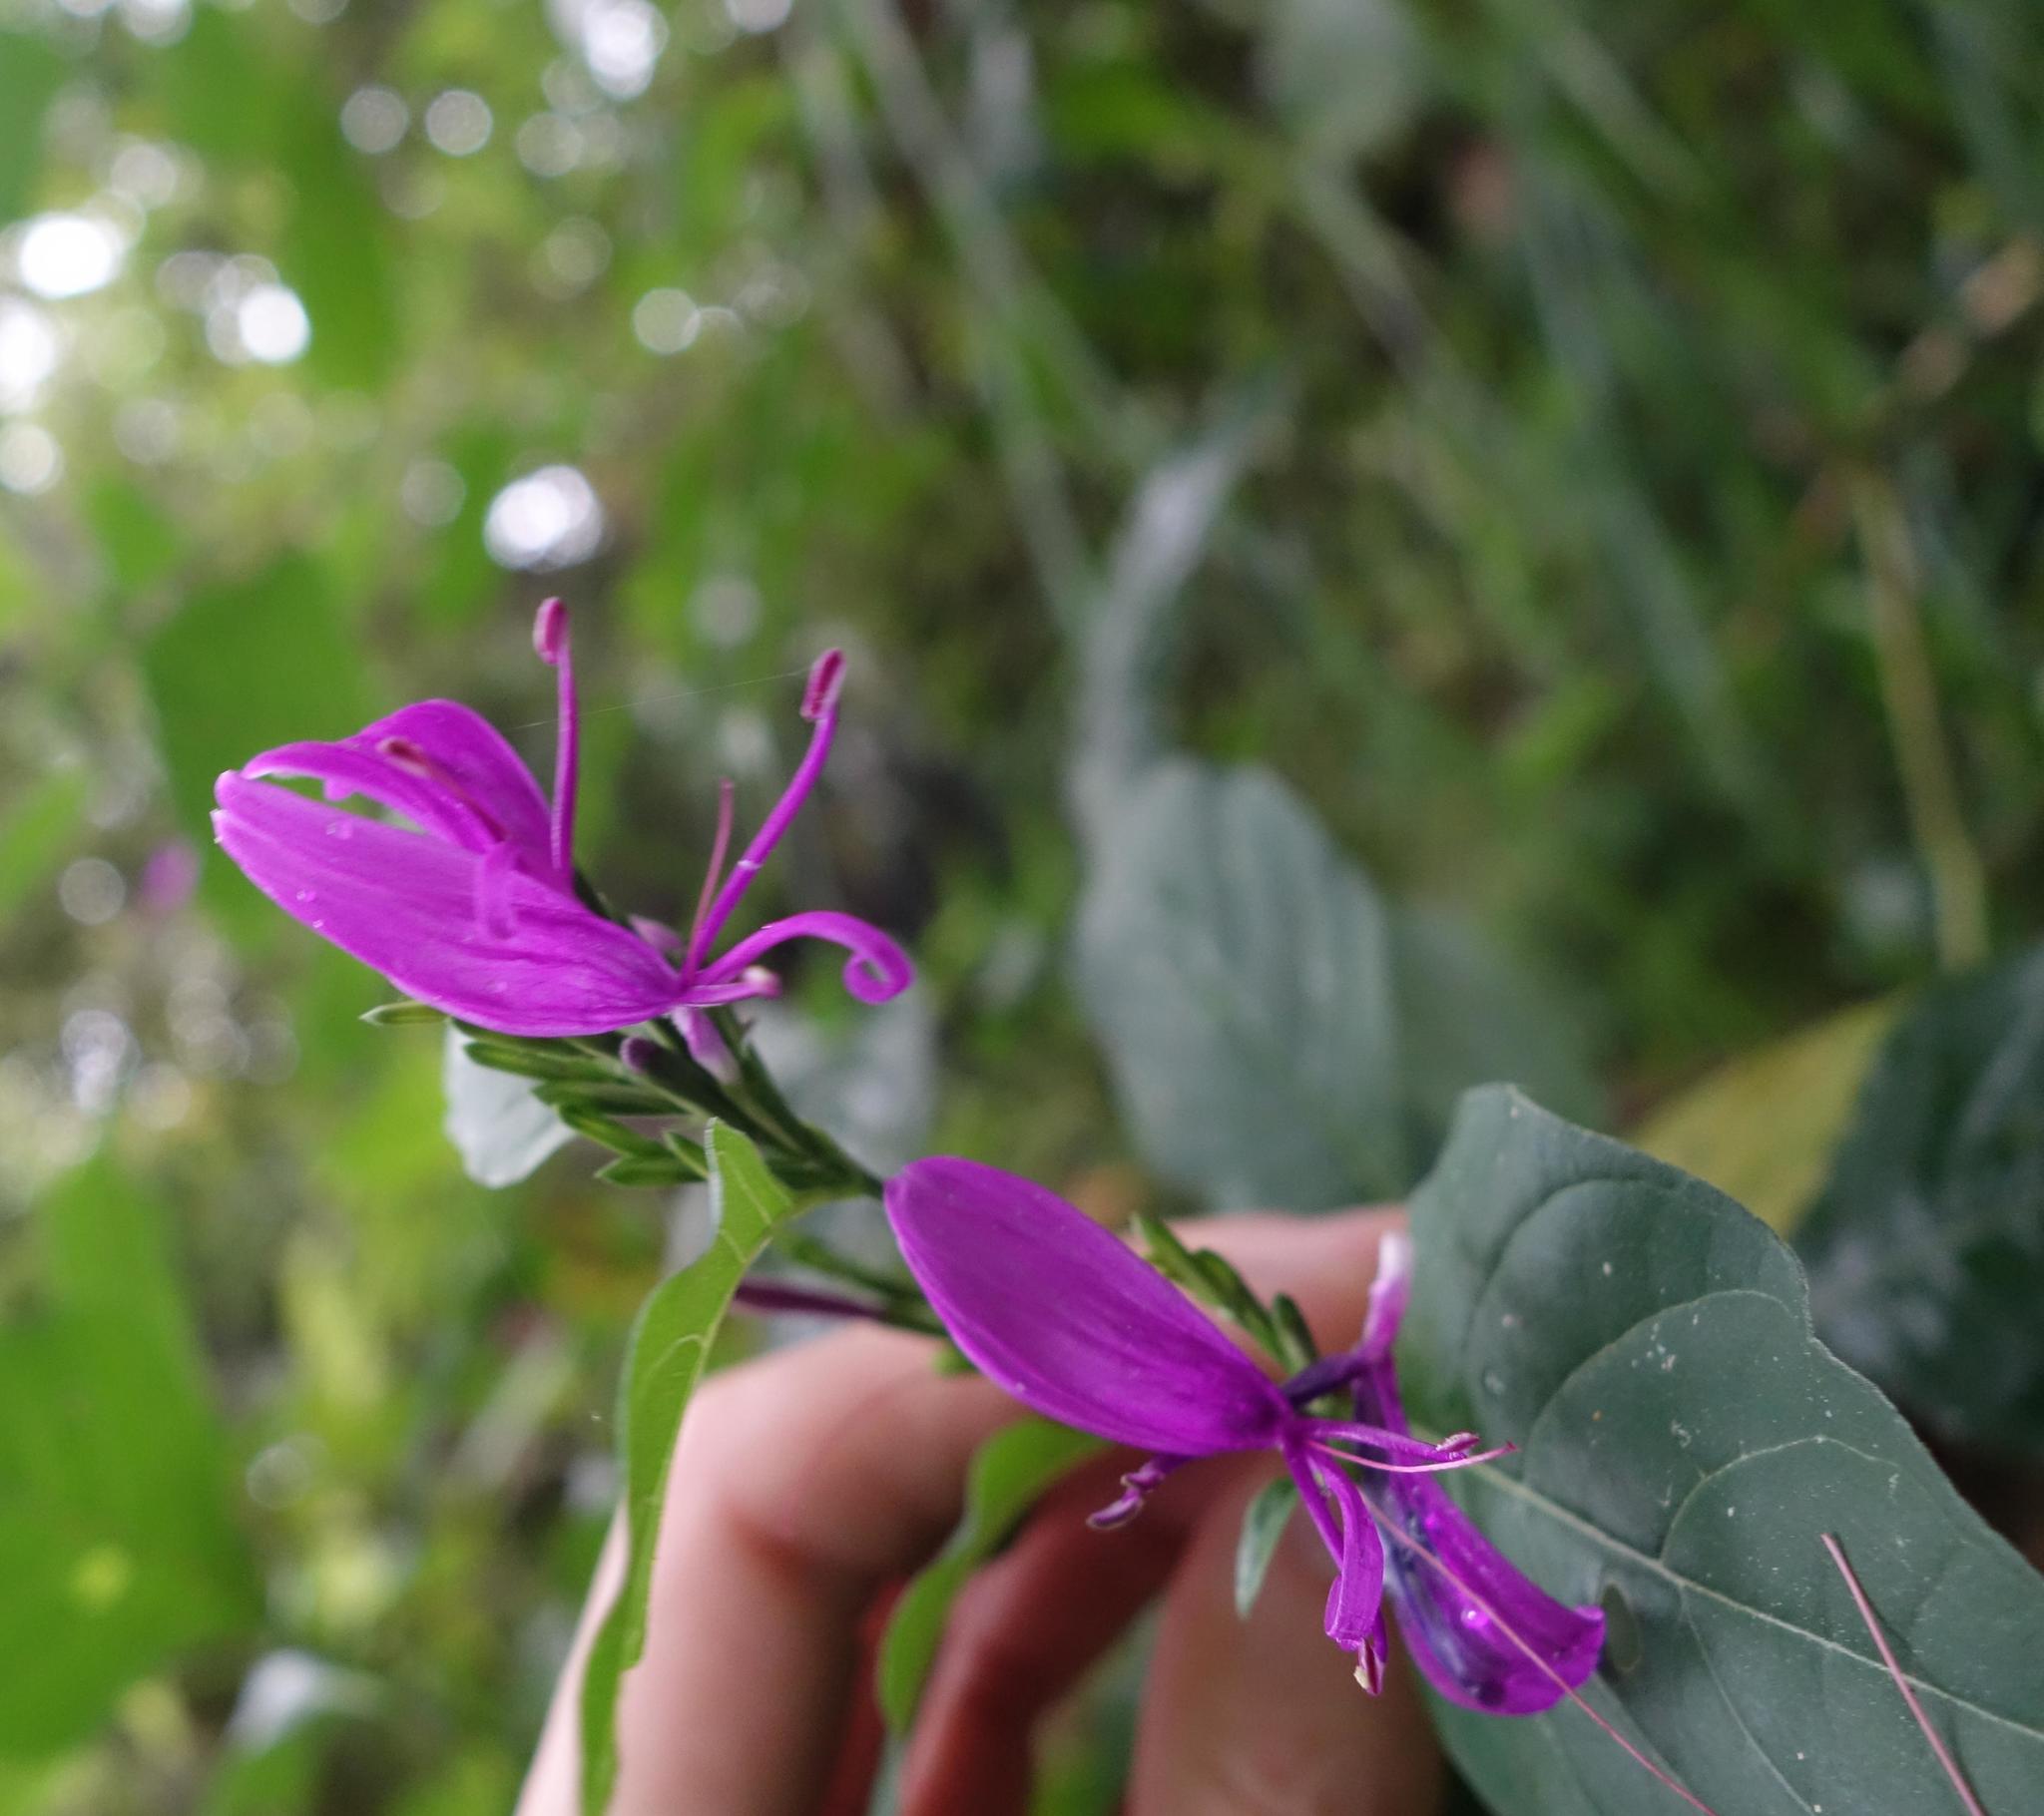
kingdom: Plantae
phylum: Tracheophyta
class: Magnoliopsida
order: Lamiales
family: Acanthaceae
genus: Hypoestes
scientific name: Hypoestes purpurea
